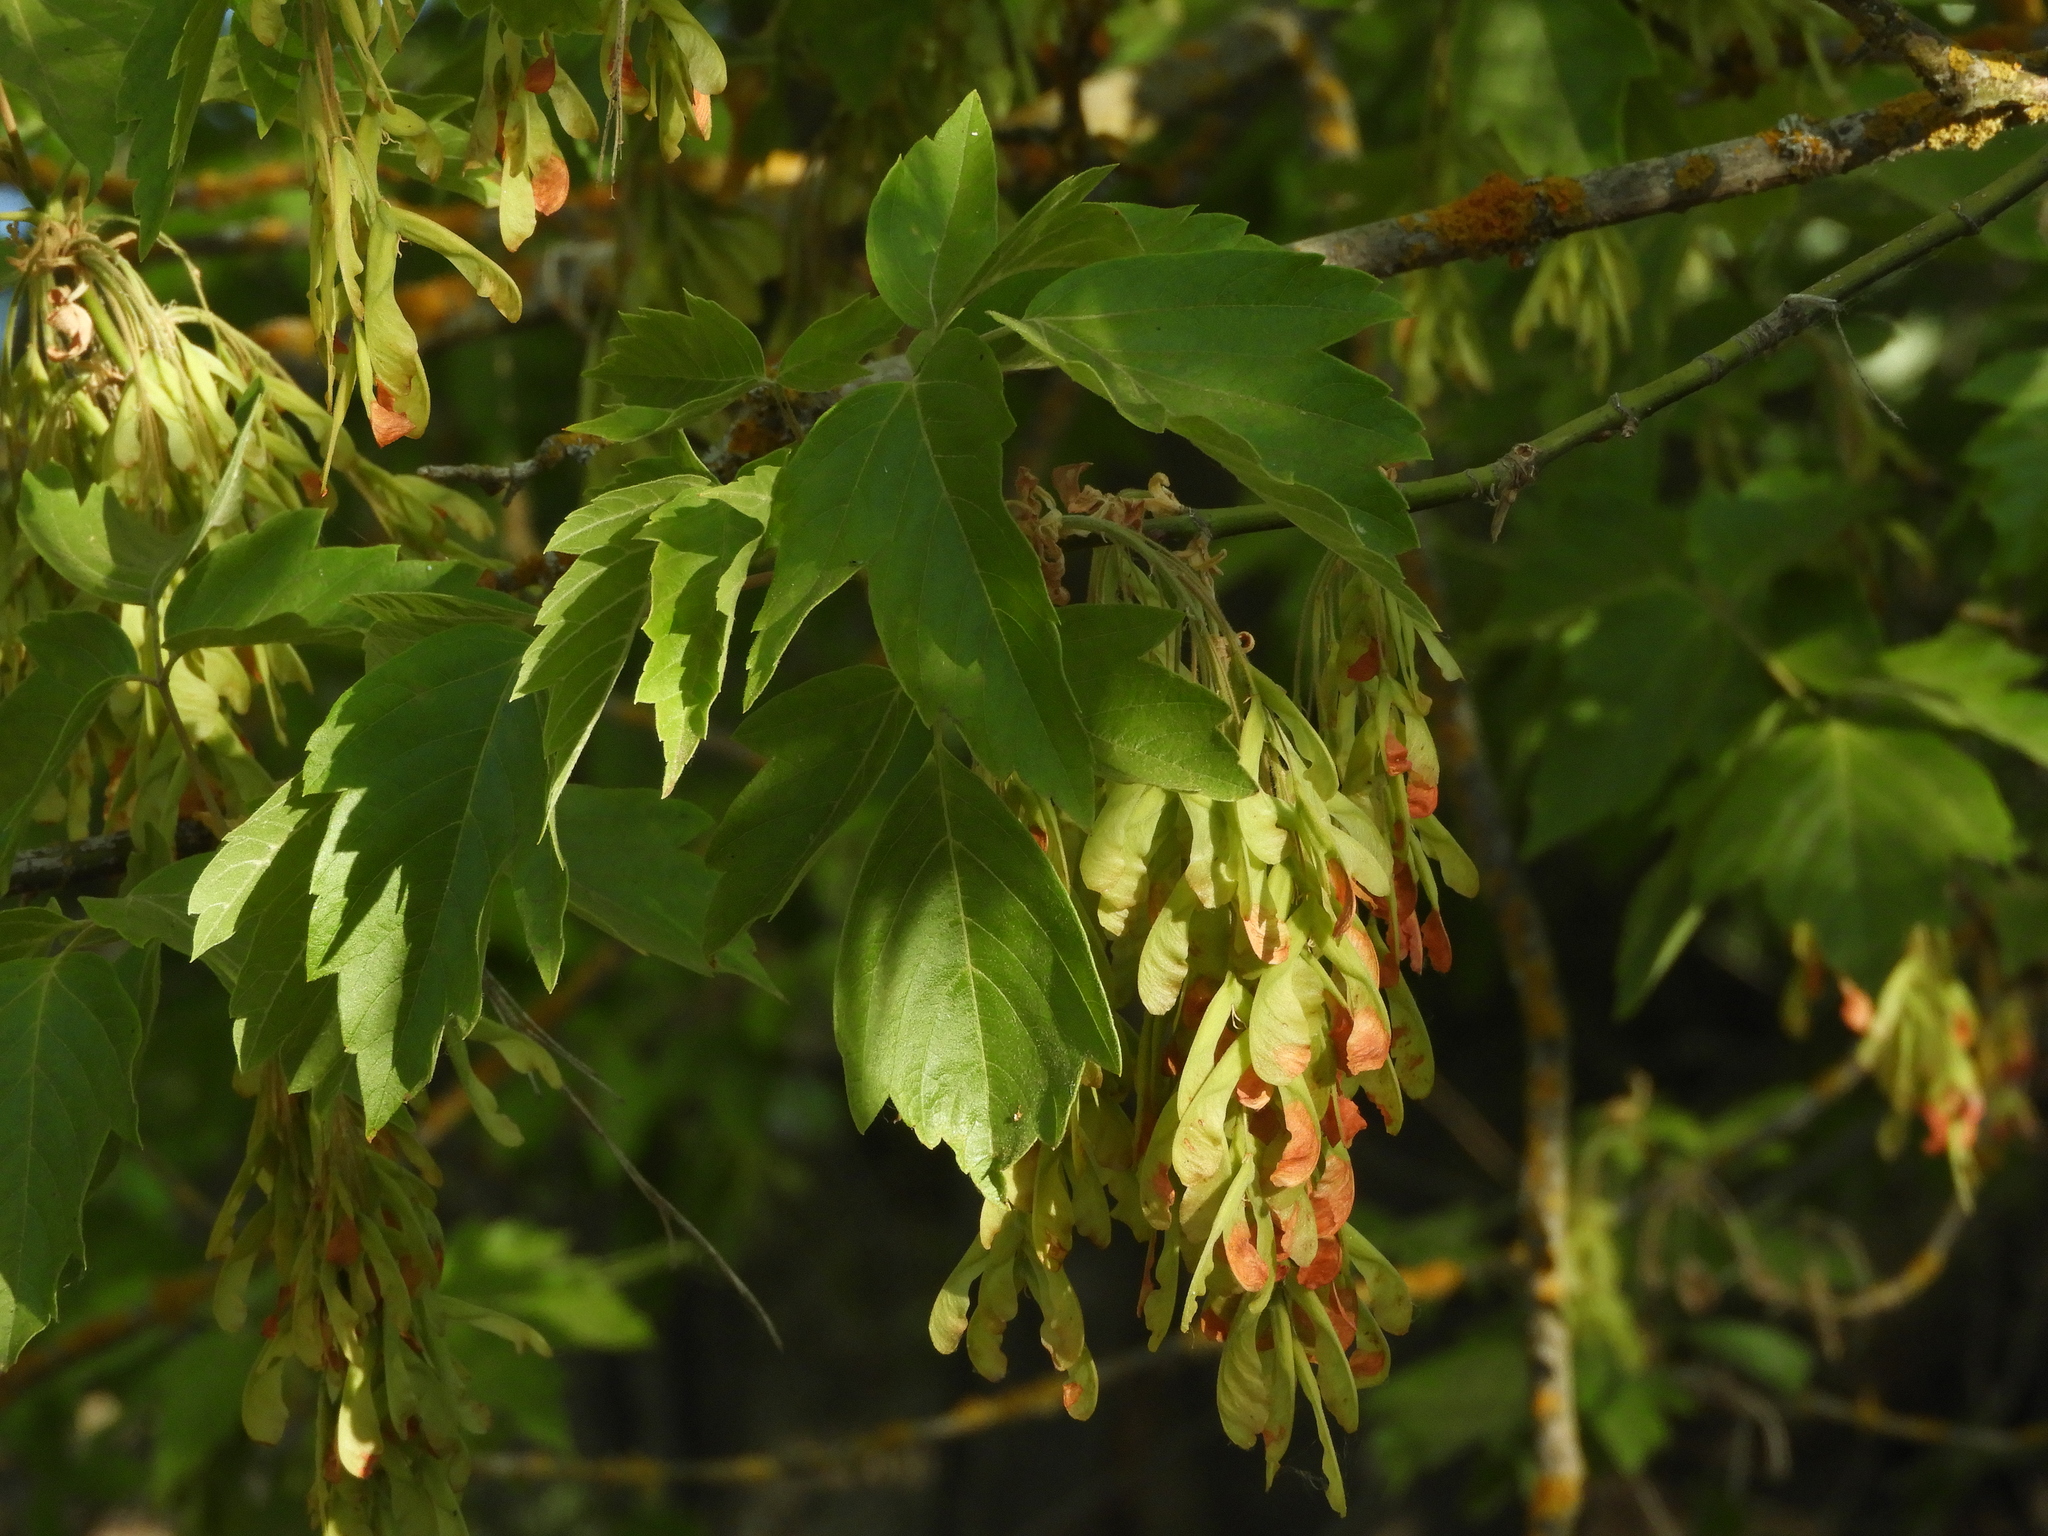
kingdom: Plantae
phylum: Tracheophyta
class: Magnoliopsida
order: Sapindales
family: Sapindaceae
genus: Acer
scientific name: Acer negundo
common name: Ashleaf maple
